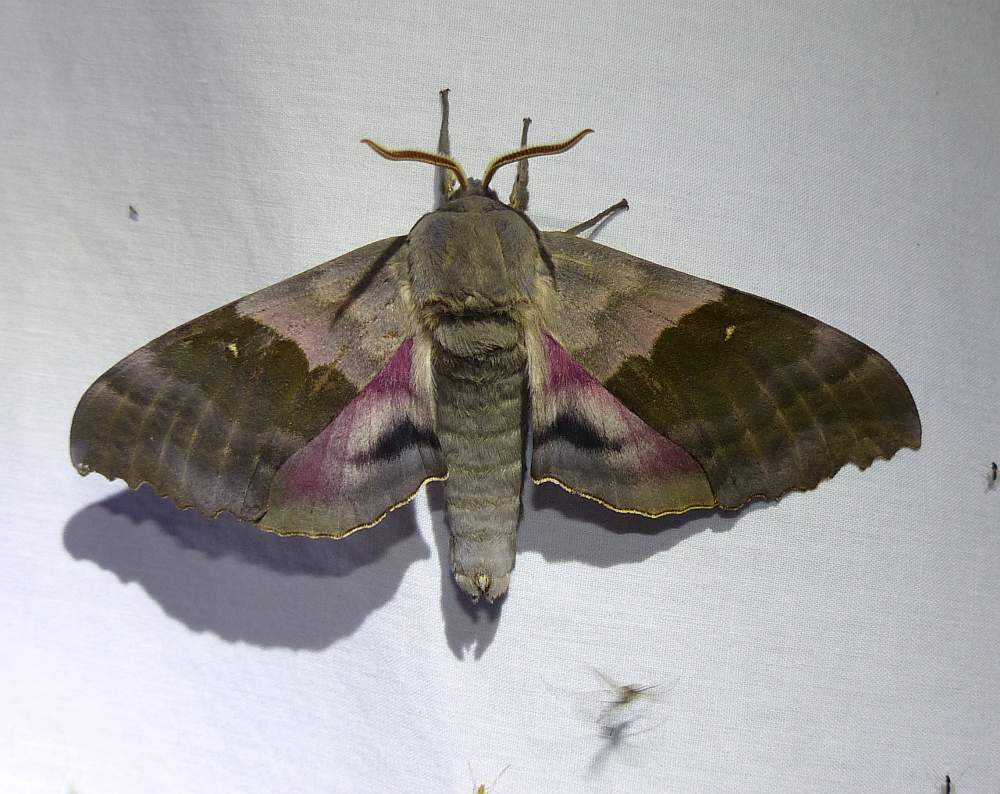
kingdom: Animalia
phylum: Arthropoda
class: Insecta
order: Lepidoptera
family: Sphingidae
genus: Pachysphinx
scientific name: Pachysphinx modesta
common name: Big poplar sphinx
